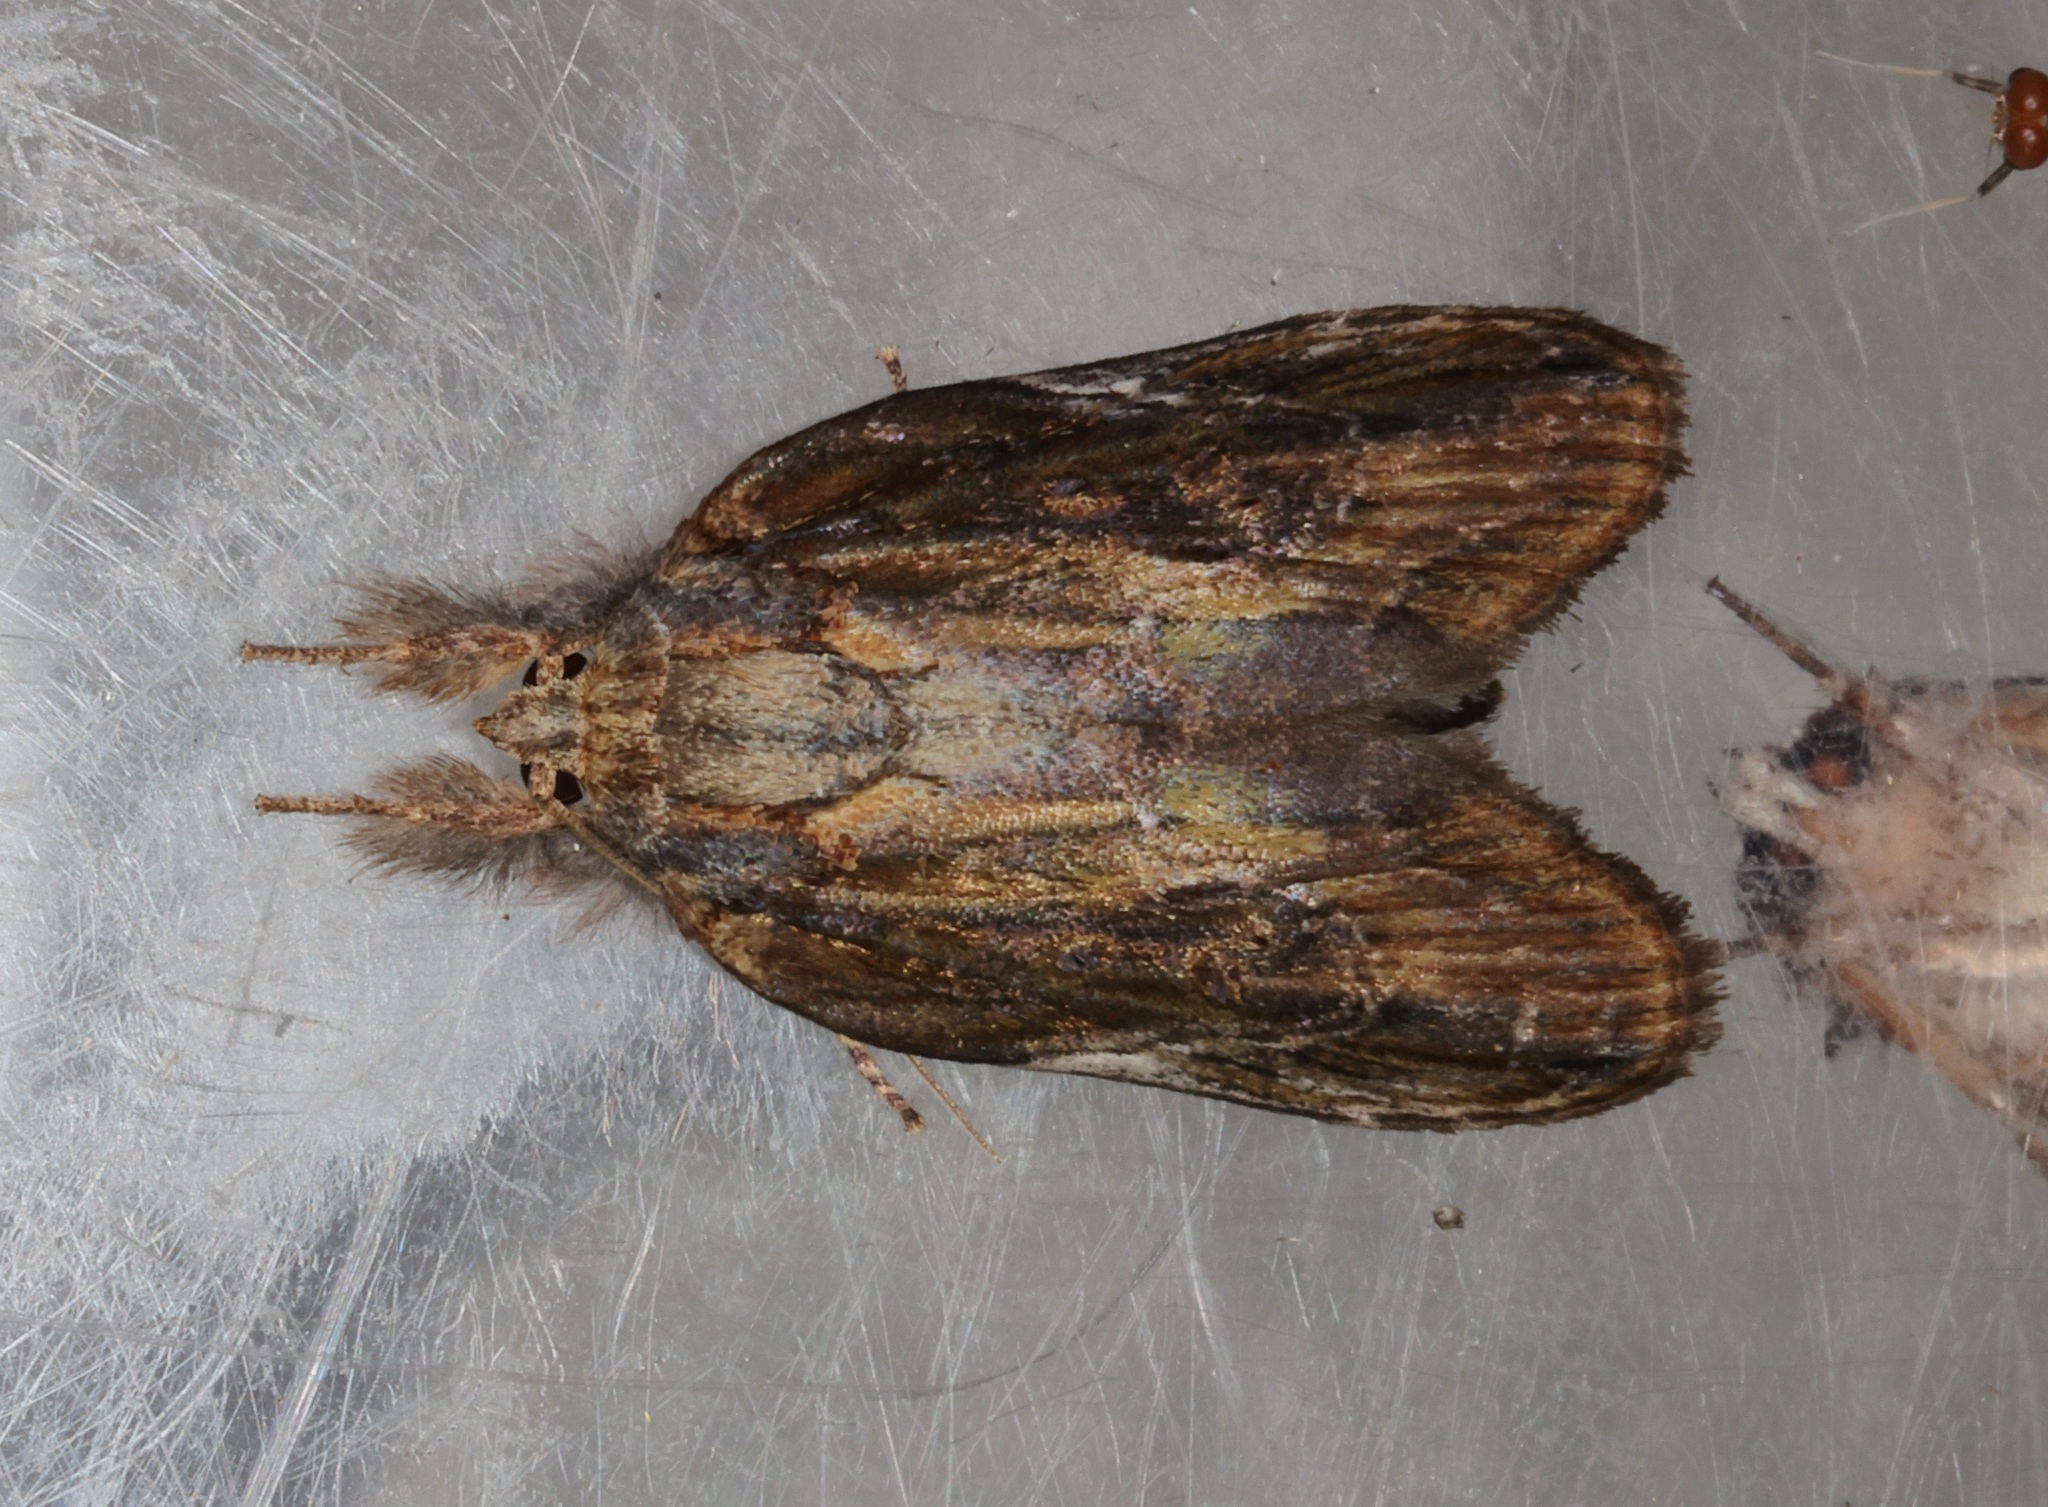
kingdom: Animalia
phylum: Arthropoda
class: Insecta
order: Lepidoptera
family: Nolidae
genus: Lamprothripa
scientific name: Lamprothripa scotia
